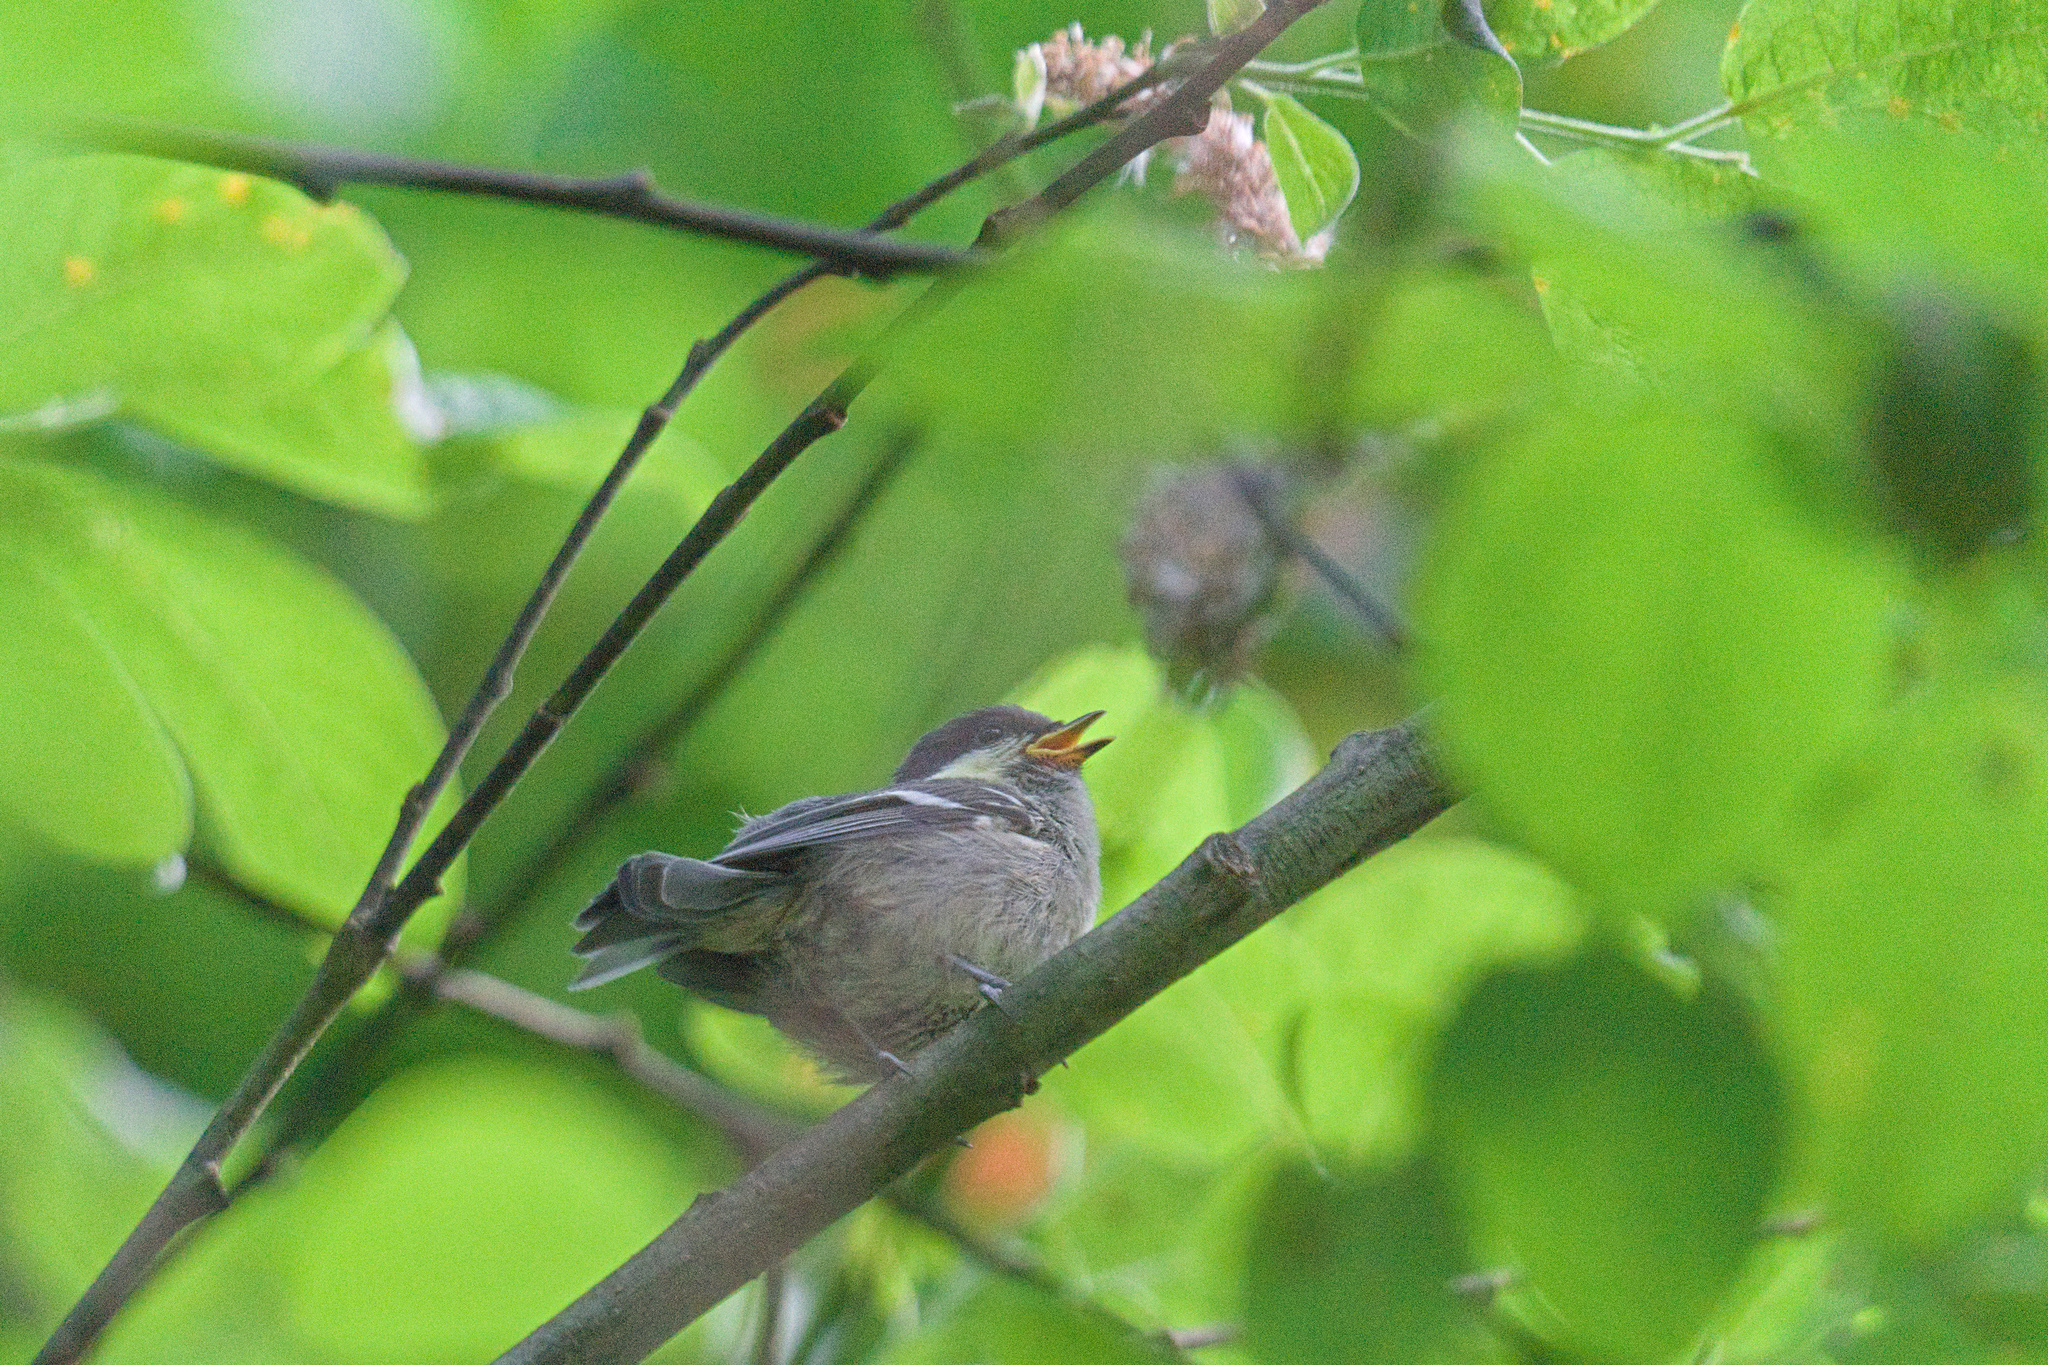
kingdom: Animalia
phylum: Chordata
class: Aves
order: Passeriformes
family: Paridae
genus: Periparus
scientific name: Periparus ater
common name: Coal tit
